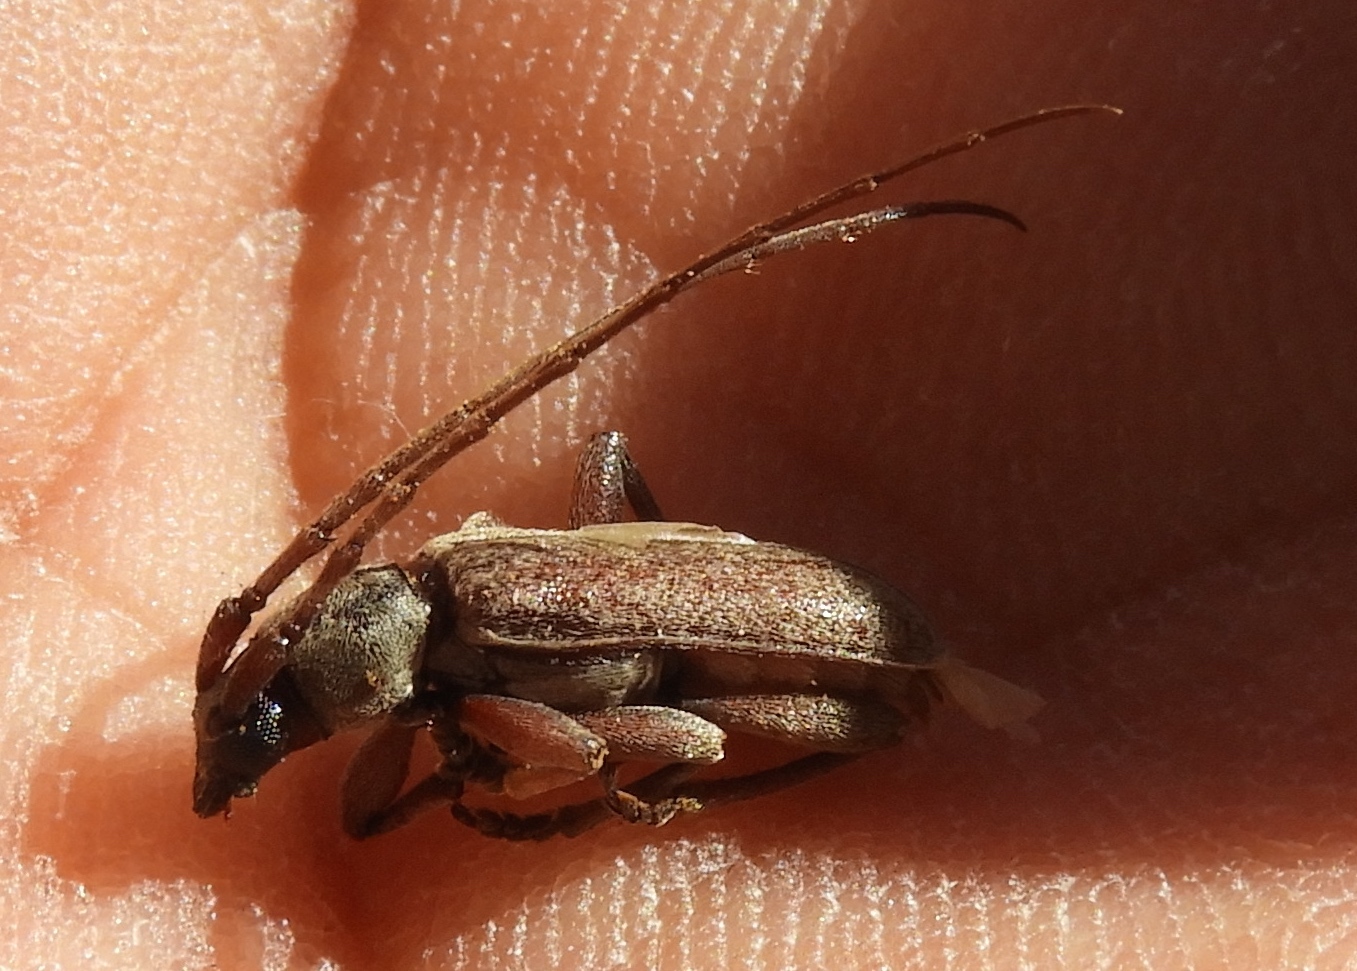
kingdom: Animalia
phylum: Arthropoda
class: Insecta
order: Coleoptera
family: Cerambycidae
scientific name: Cerambycidae
